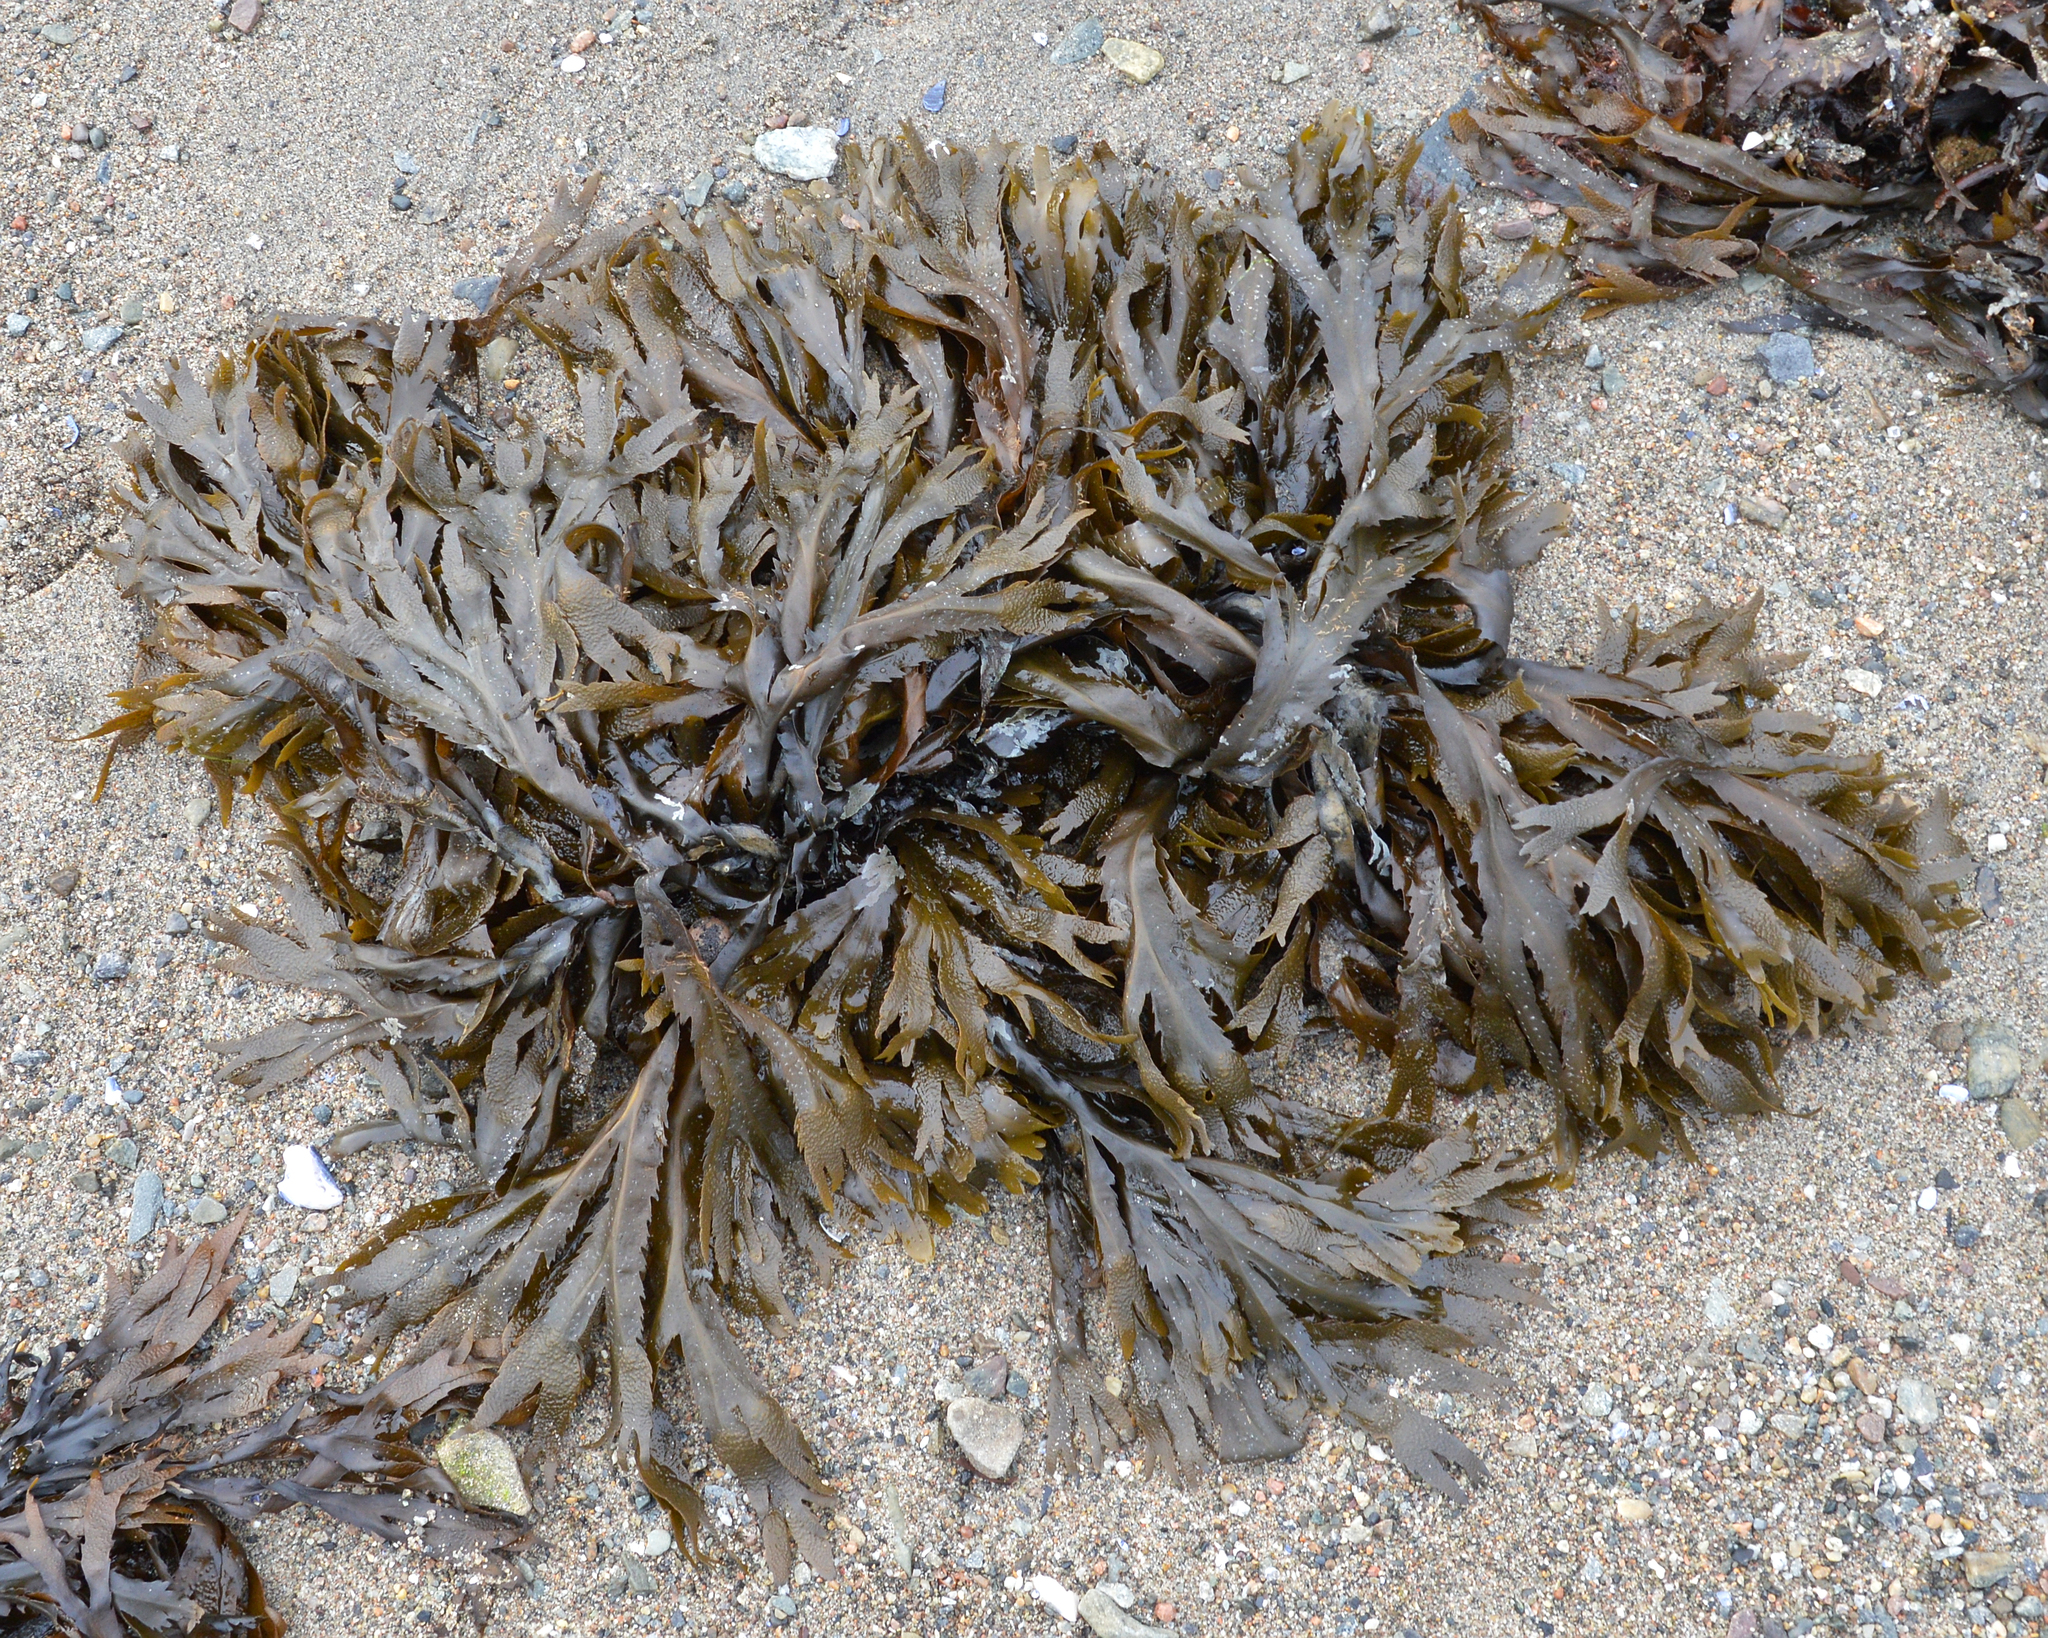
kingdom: Chromista
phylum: Ochrophyta
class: Phaeophyceae
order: Fucales
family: Fucaceae
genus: Fucus
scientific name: Fucus serratus
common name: Toothed wrack
